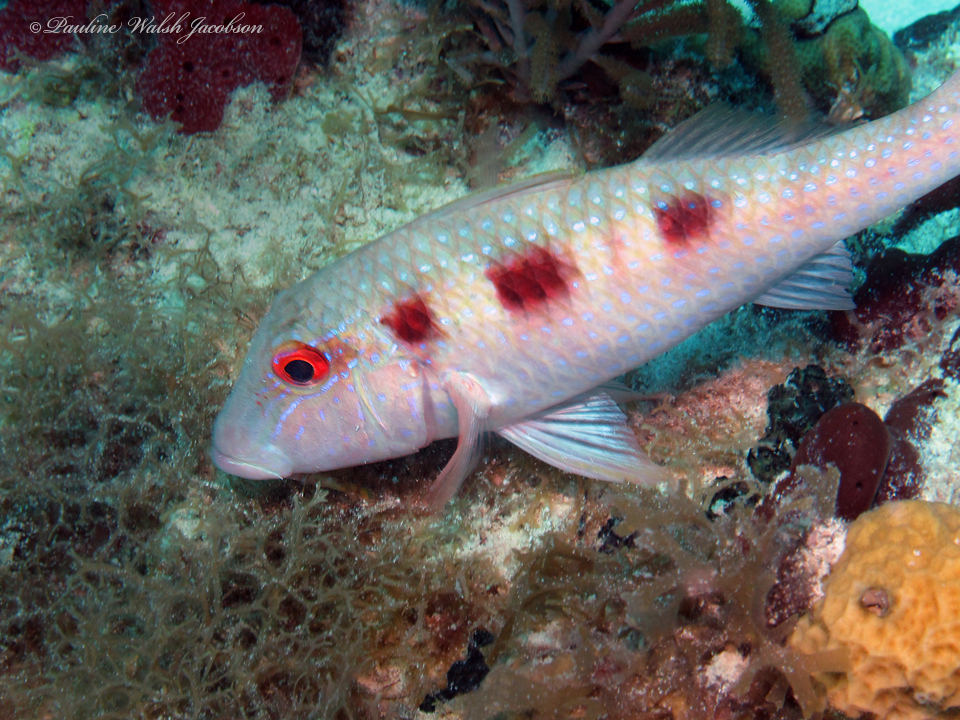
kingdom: Animalia
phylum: Chordata
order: Perciformes
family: Mullidae
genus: Pseudupeneus
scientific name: Pseudupeneus maculatus
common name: Spotted goatfish
